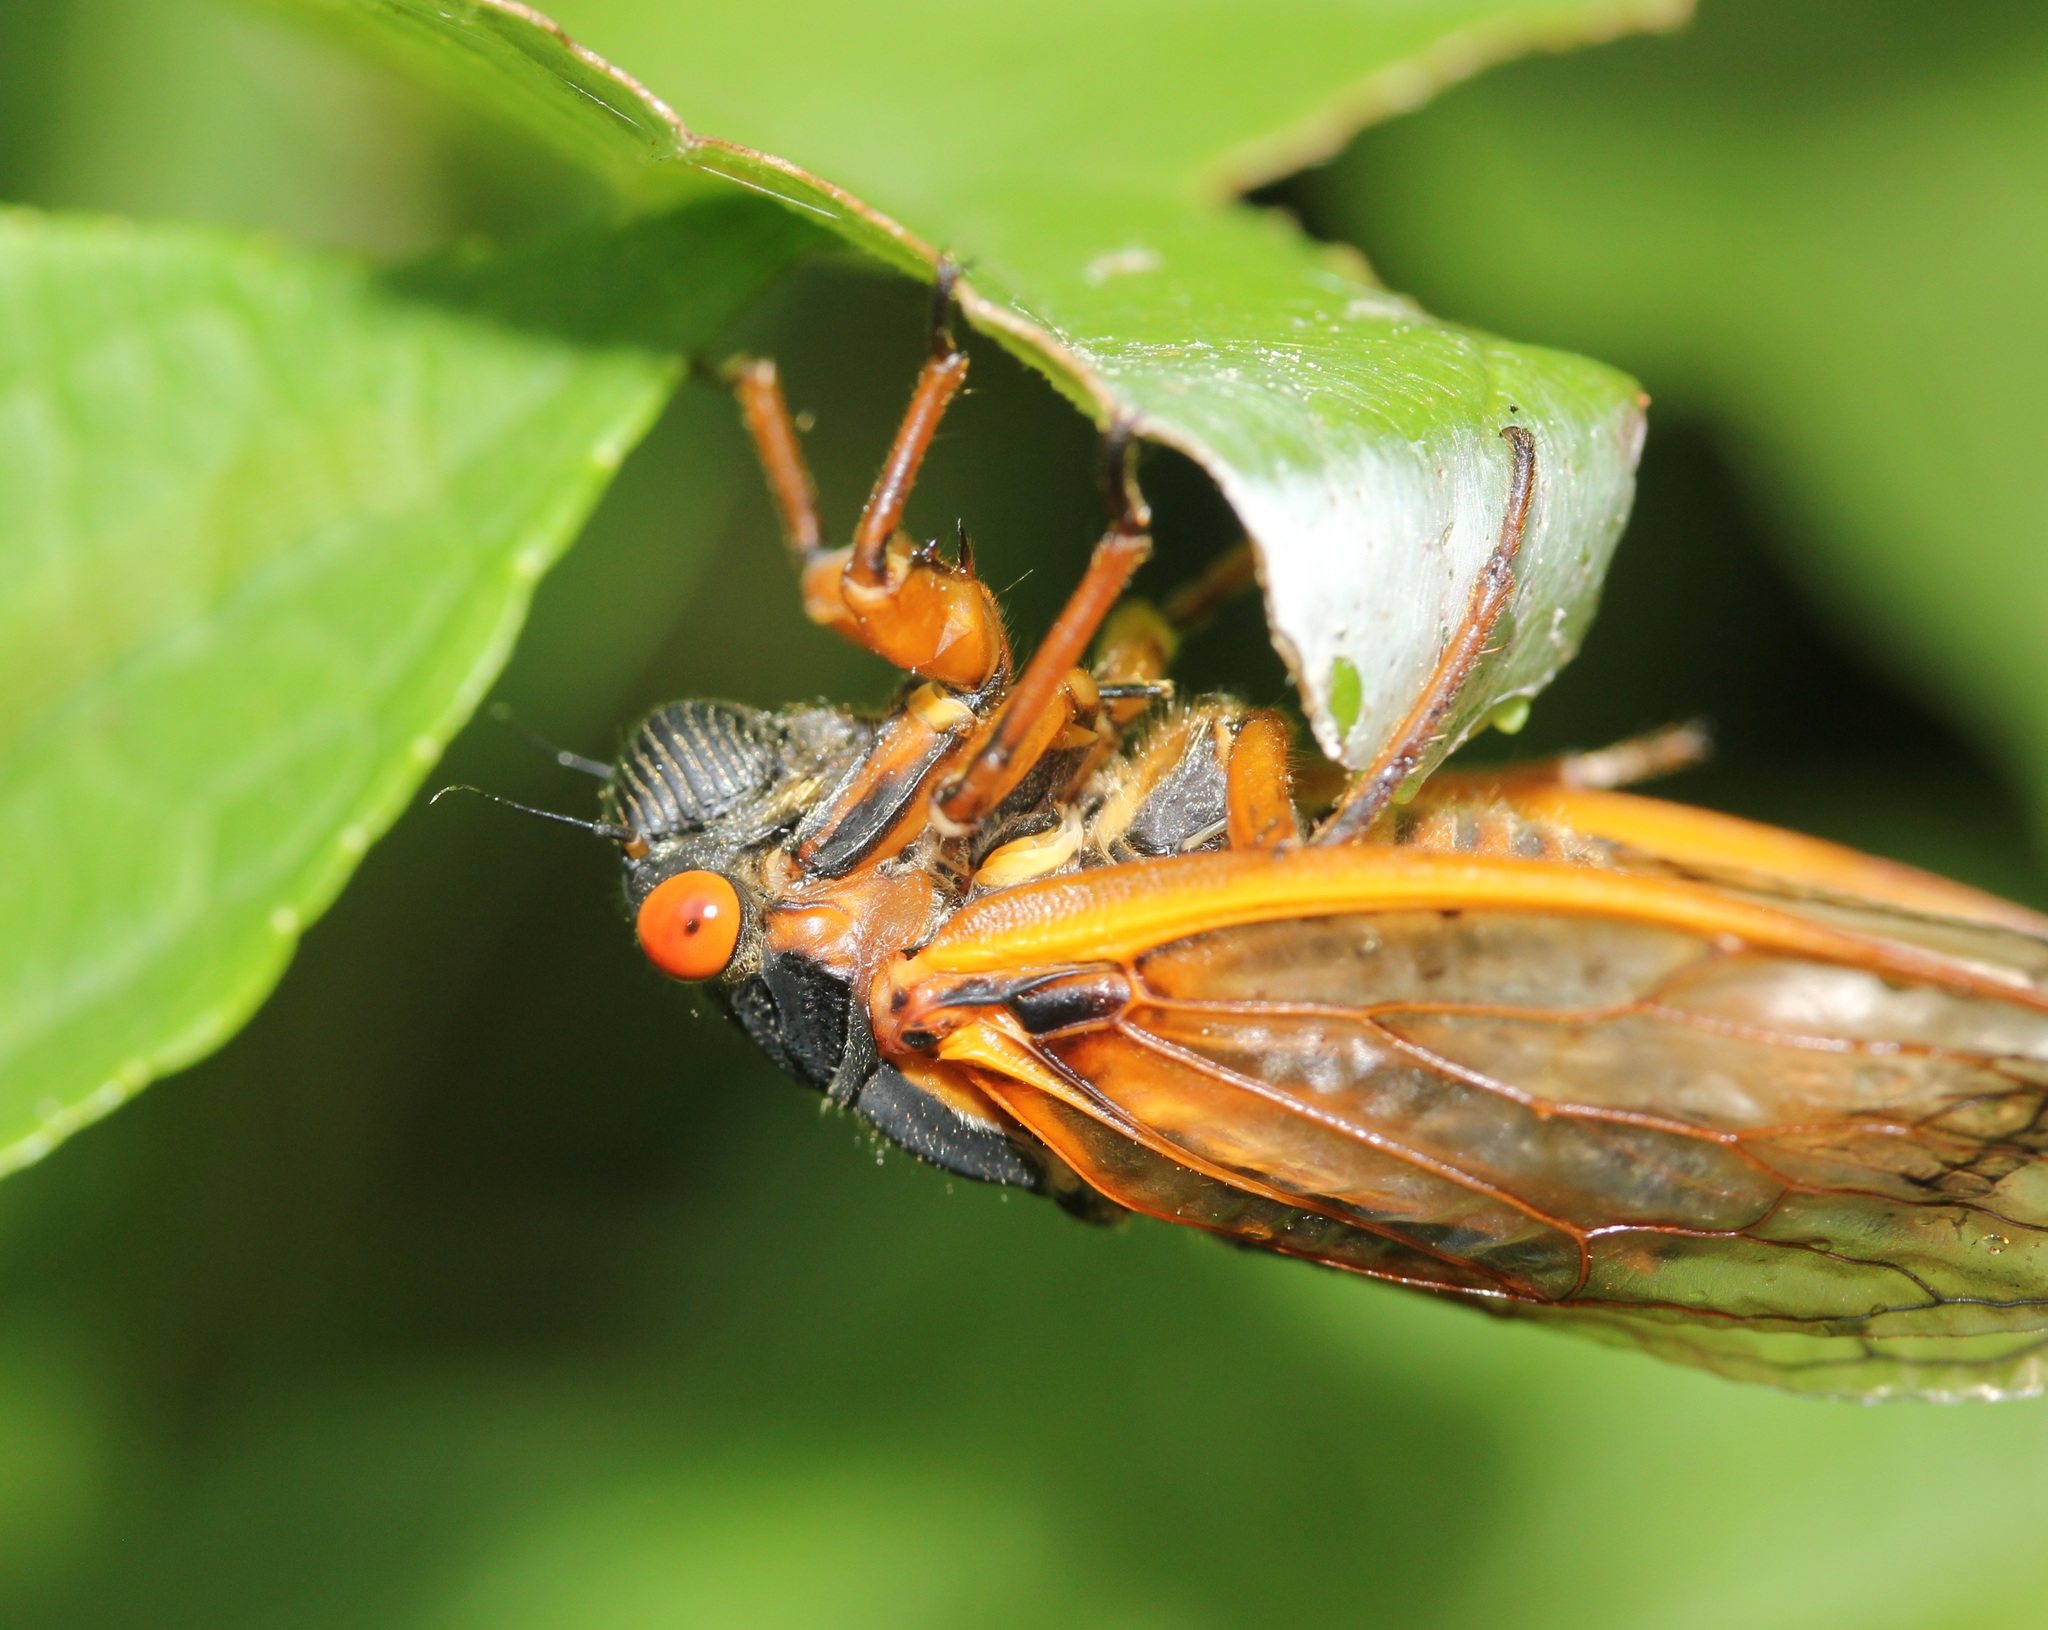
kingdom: Animalia
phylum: Arthropoda
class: Insecta
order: Hemiptera
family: Cicadidae
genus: Magicicada
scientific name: Magicicada septendecim
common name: Periodical cicada
